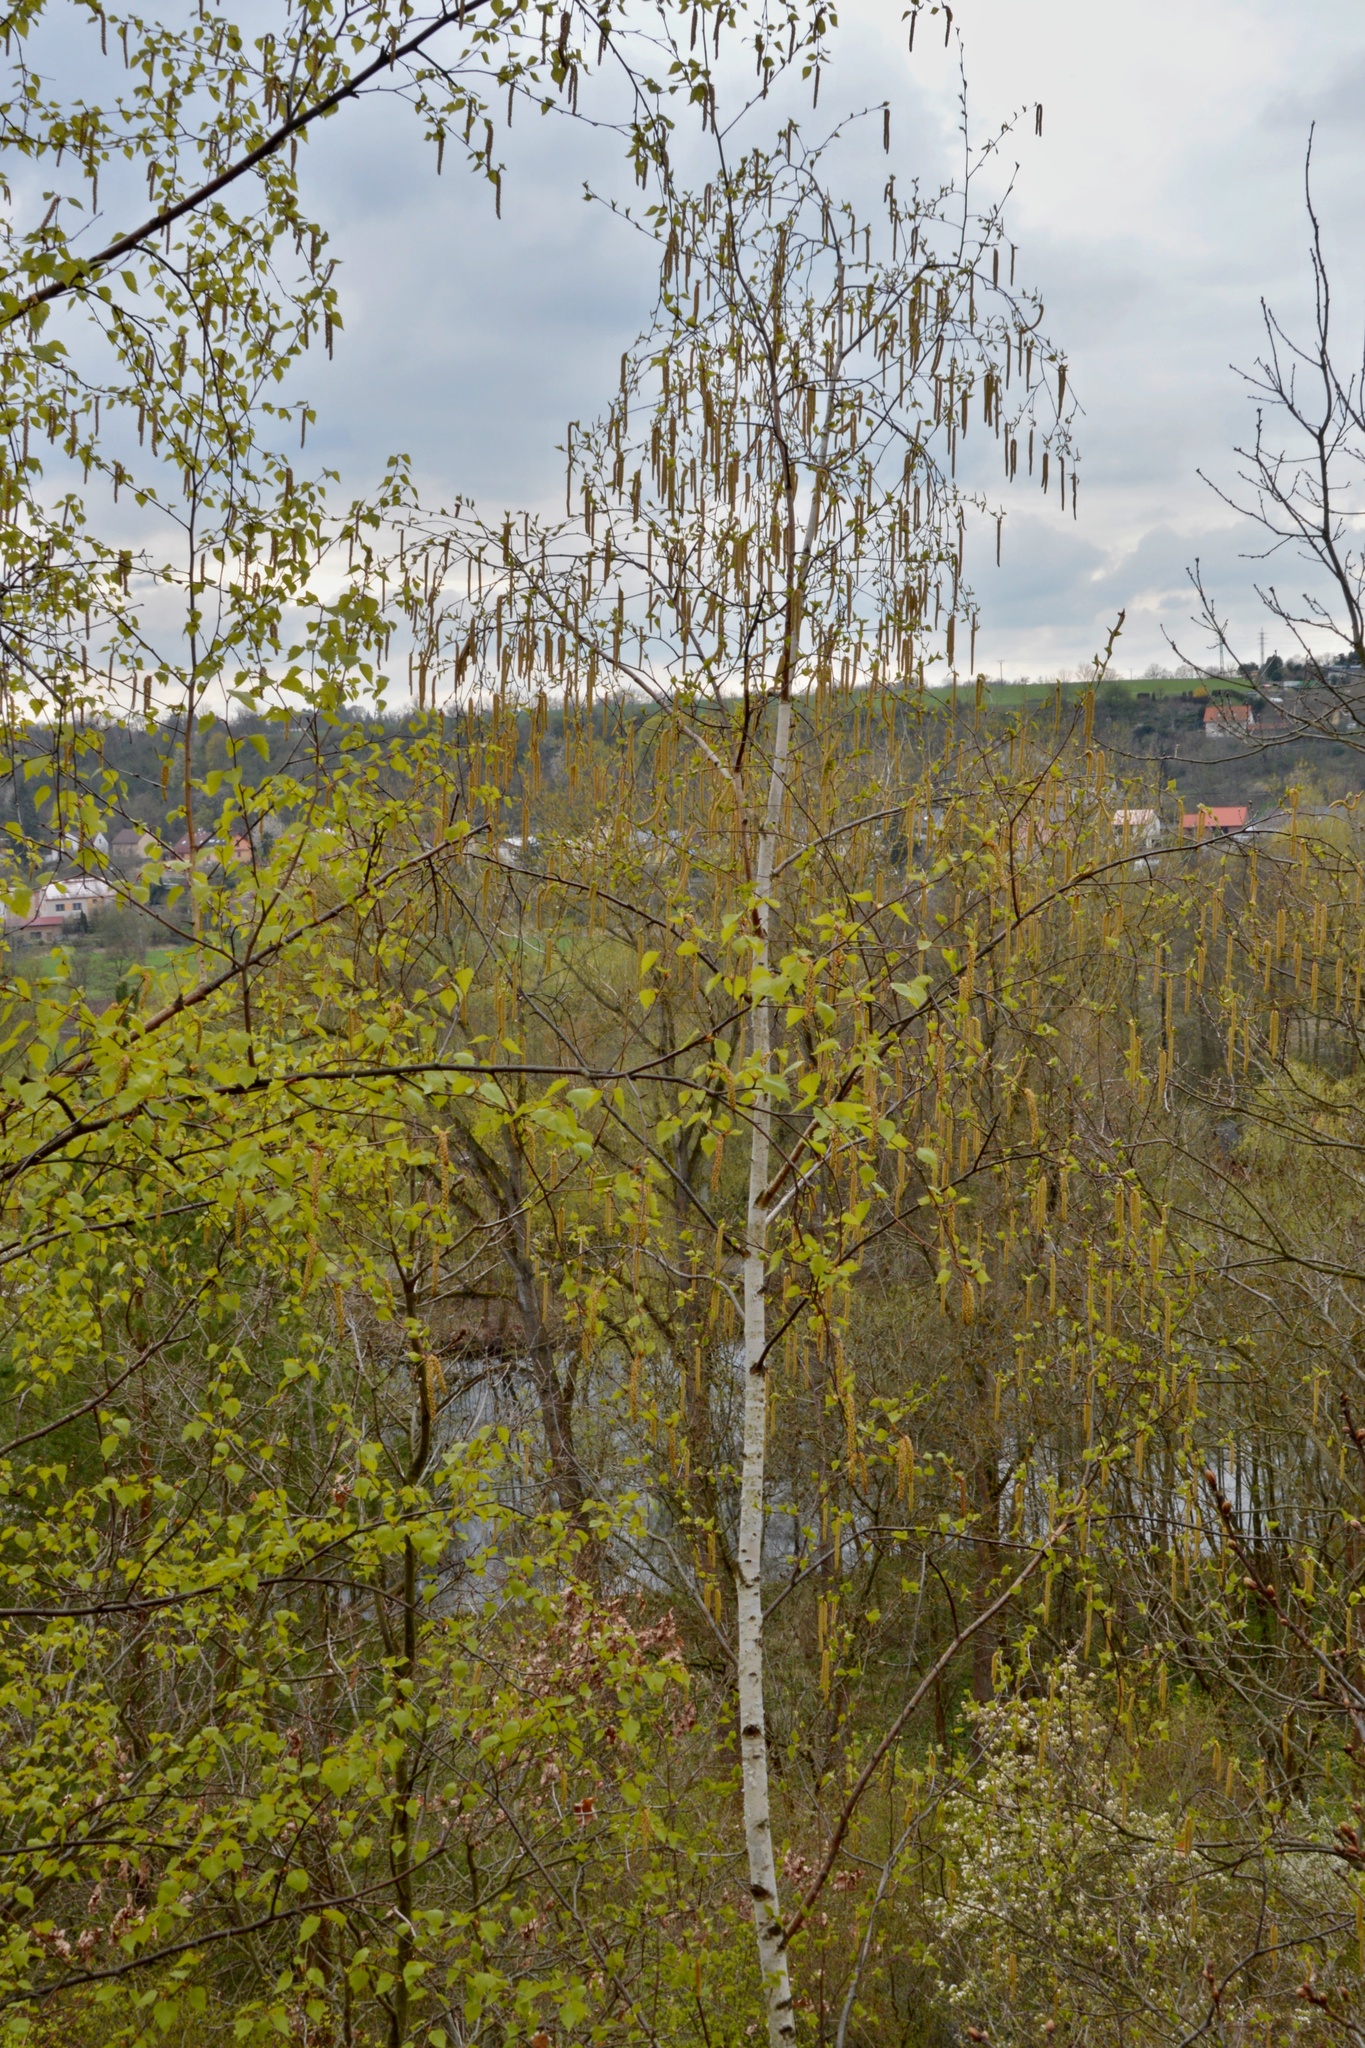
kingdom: Plantae
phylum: Tracheophyta
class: Magnoliopsida
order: Fagales
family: Betulaceae
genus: Betula
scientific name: Betula pendula
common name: Silver birch
